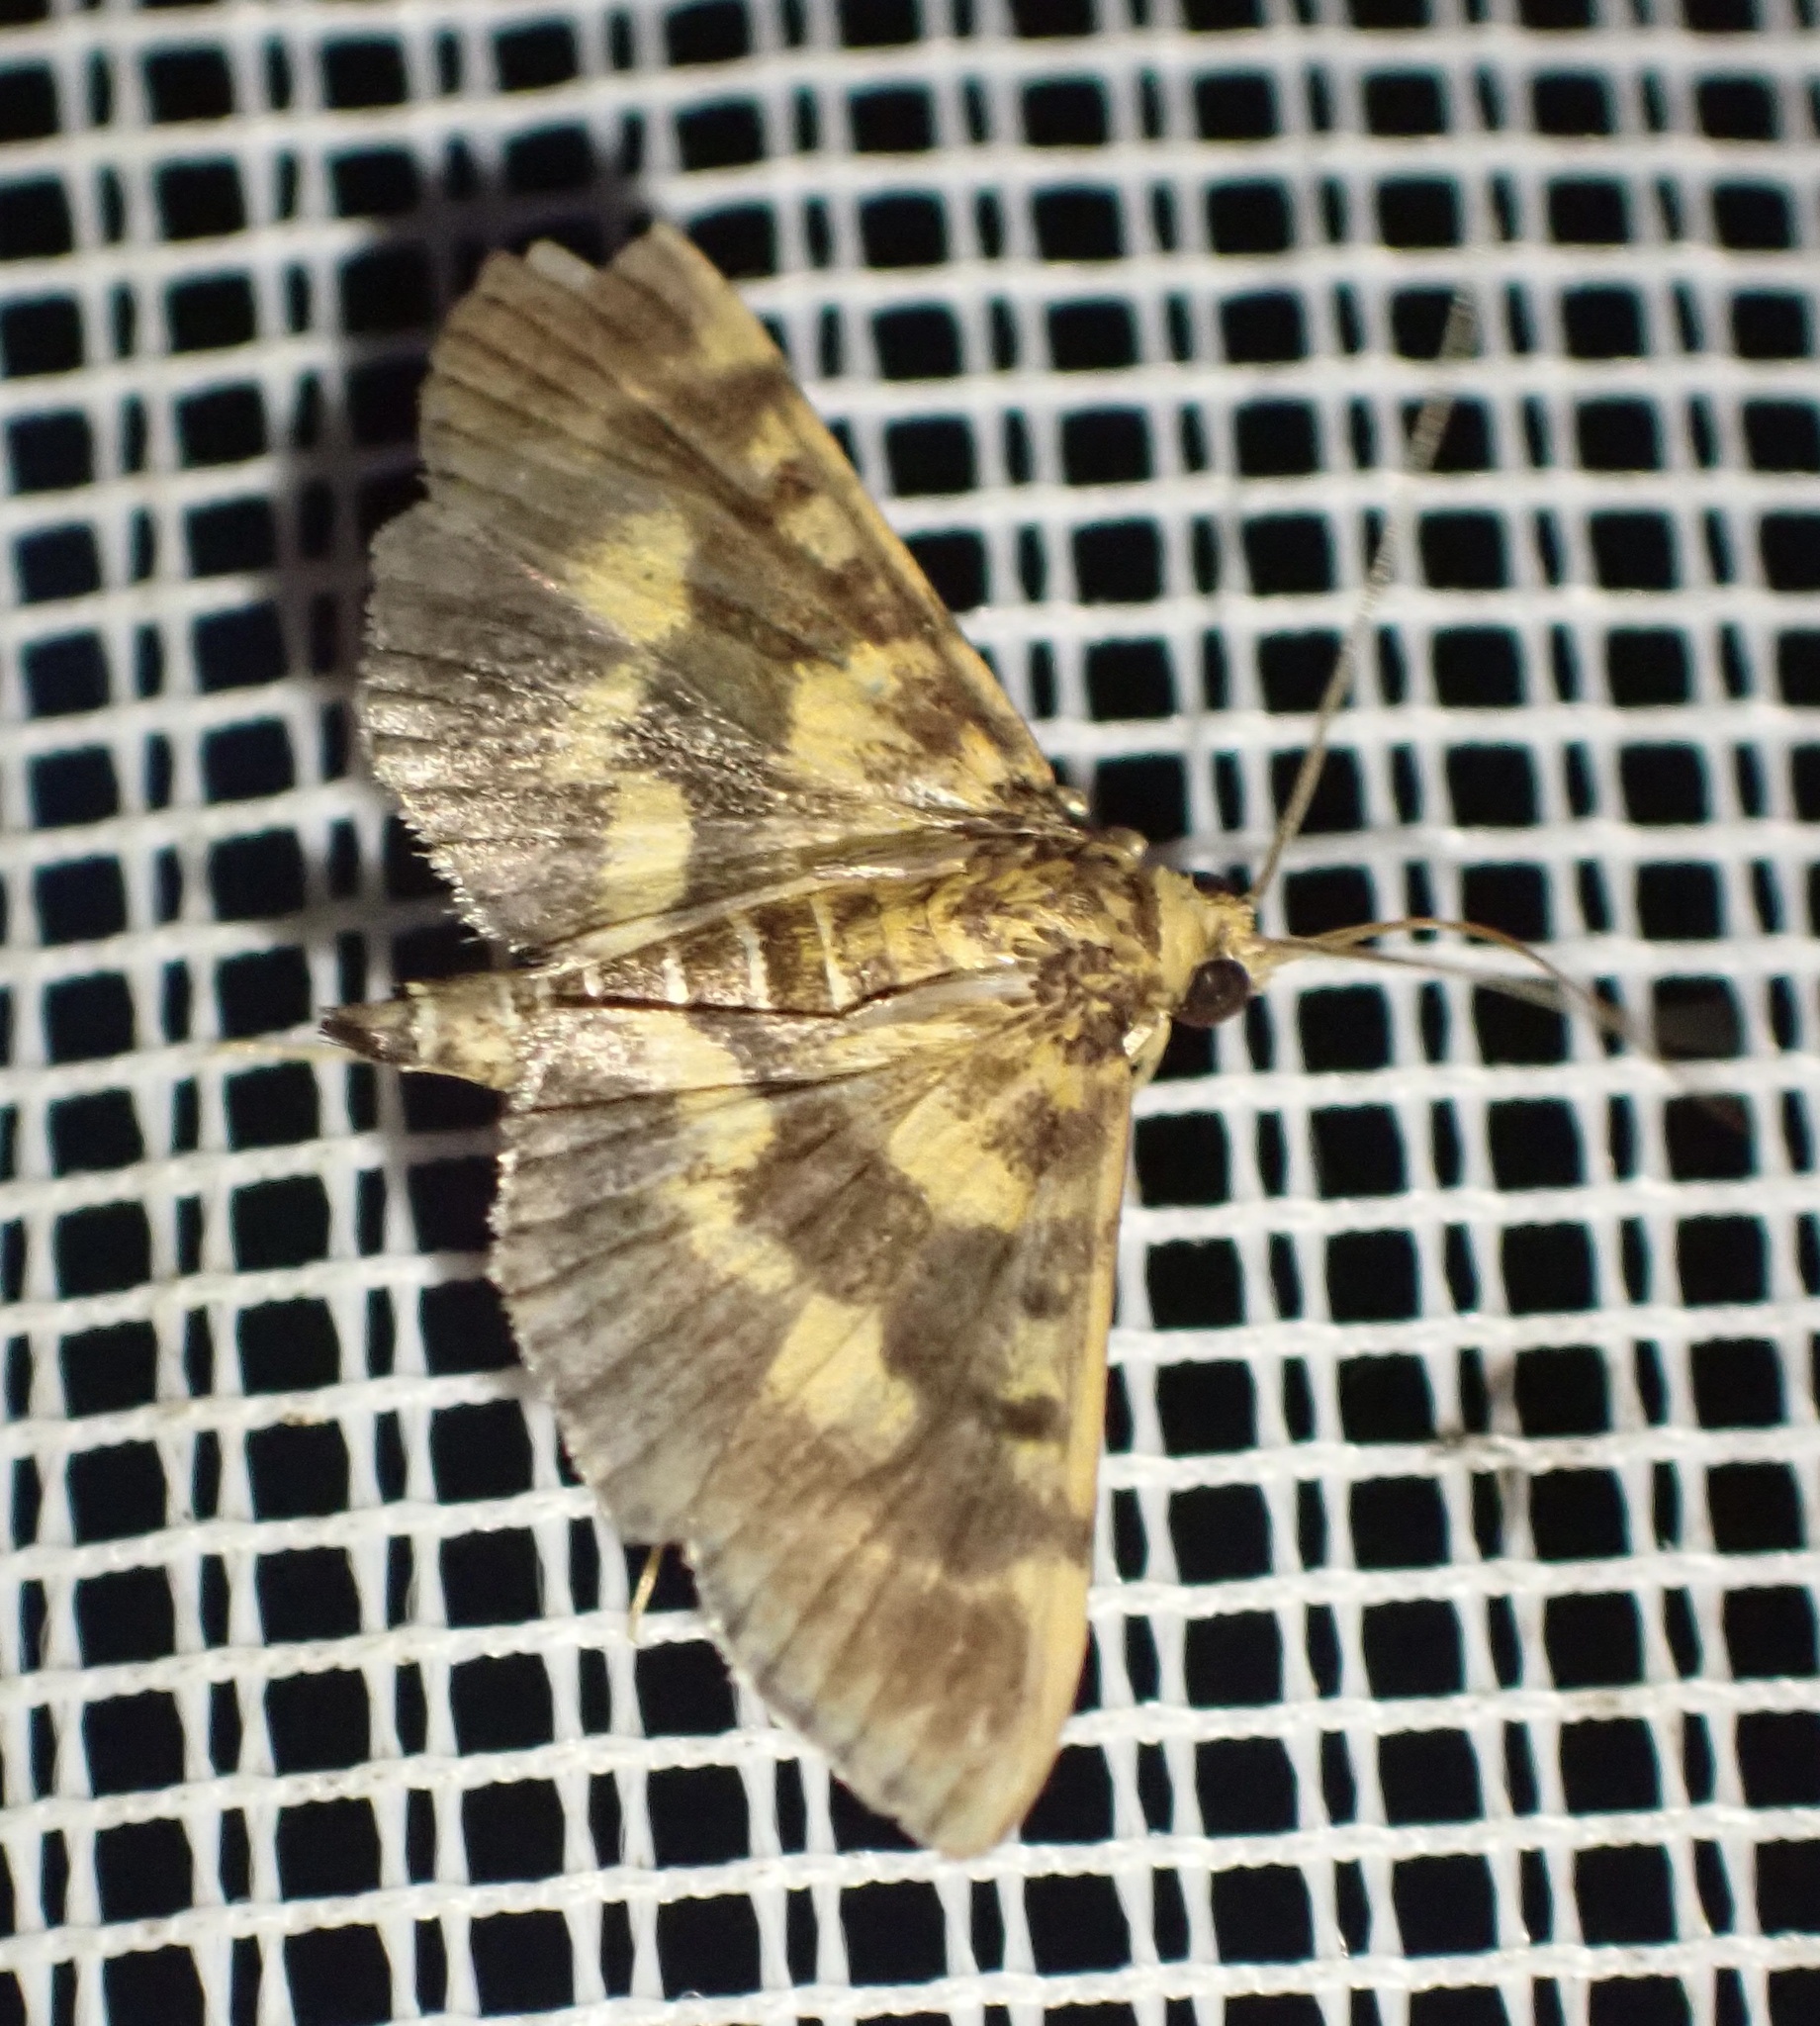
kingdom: Animalia
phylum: Arthropoda
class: Insecta
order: Lepidoptera
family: Crambidae
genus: Omiodes
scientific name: Omiodes diemenalis
